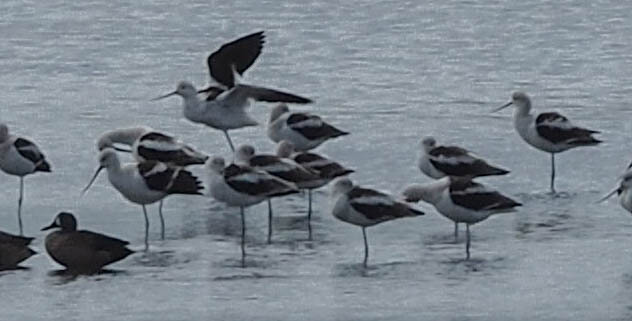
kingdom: Animalia
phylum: Chordata
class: Aves
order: Charadriiformes
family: Recurvirostridae
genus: Recurvirostra
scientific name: Recurvirostra americana
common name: American avocet
